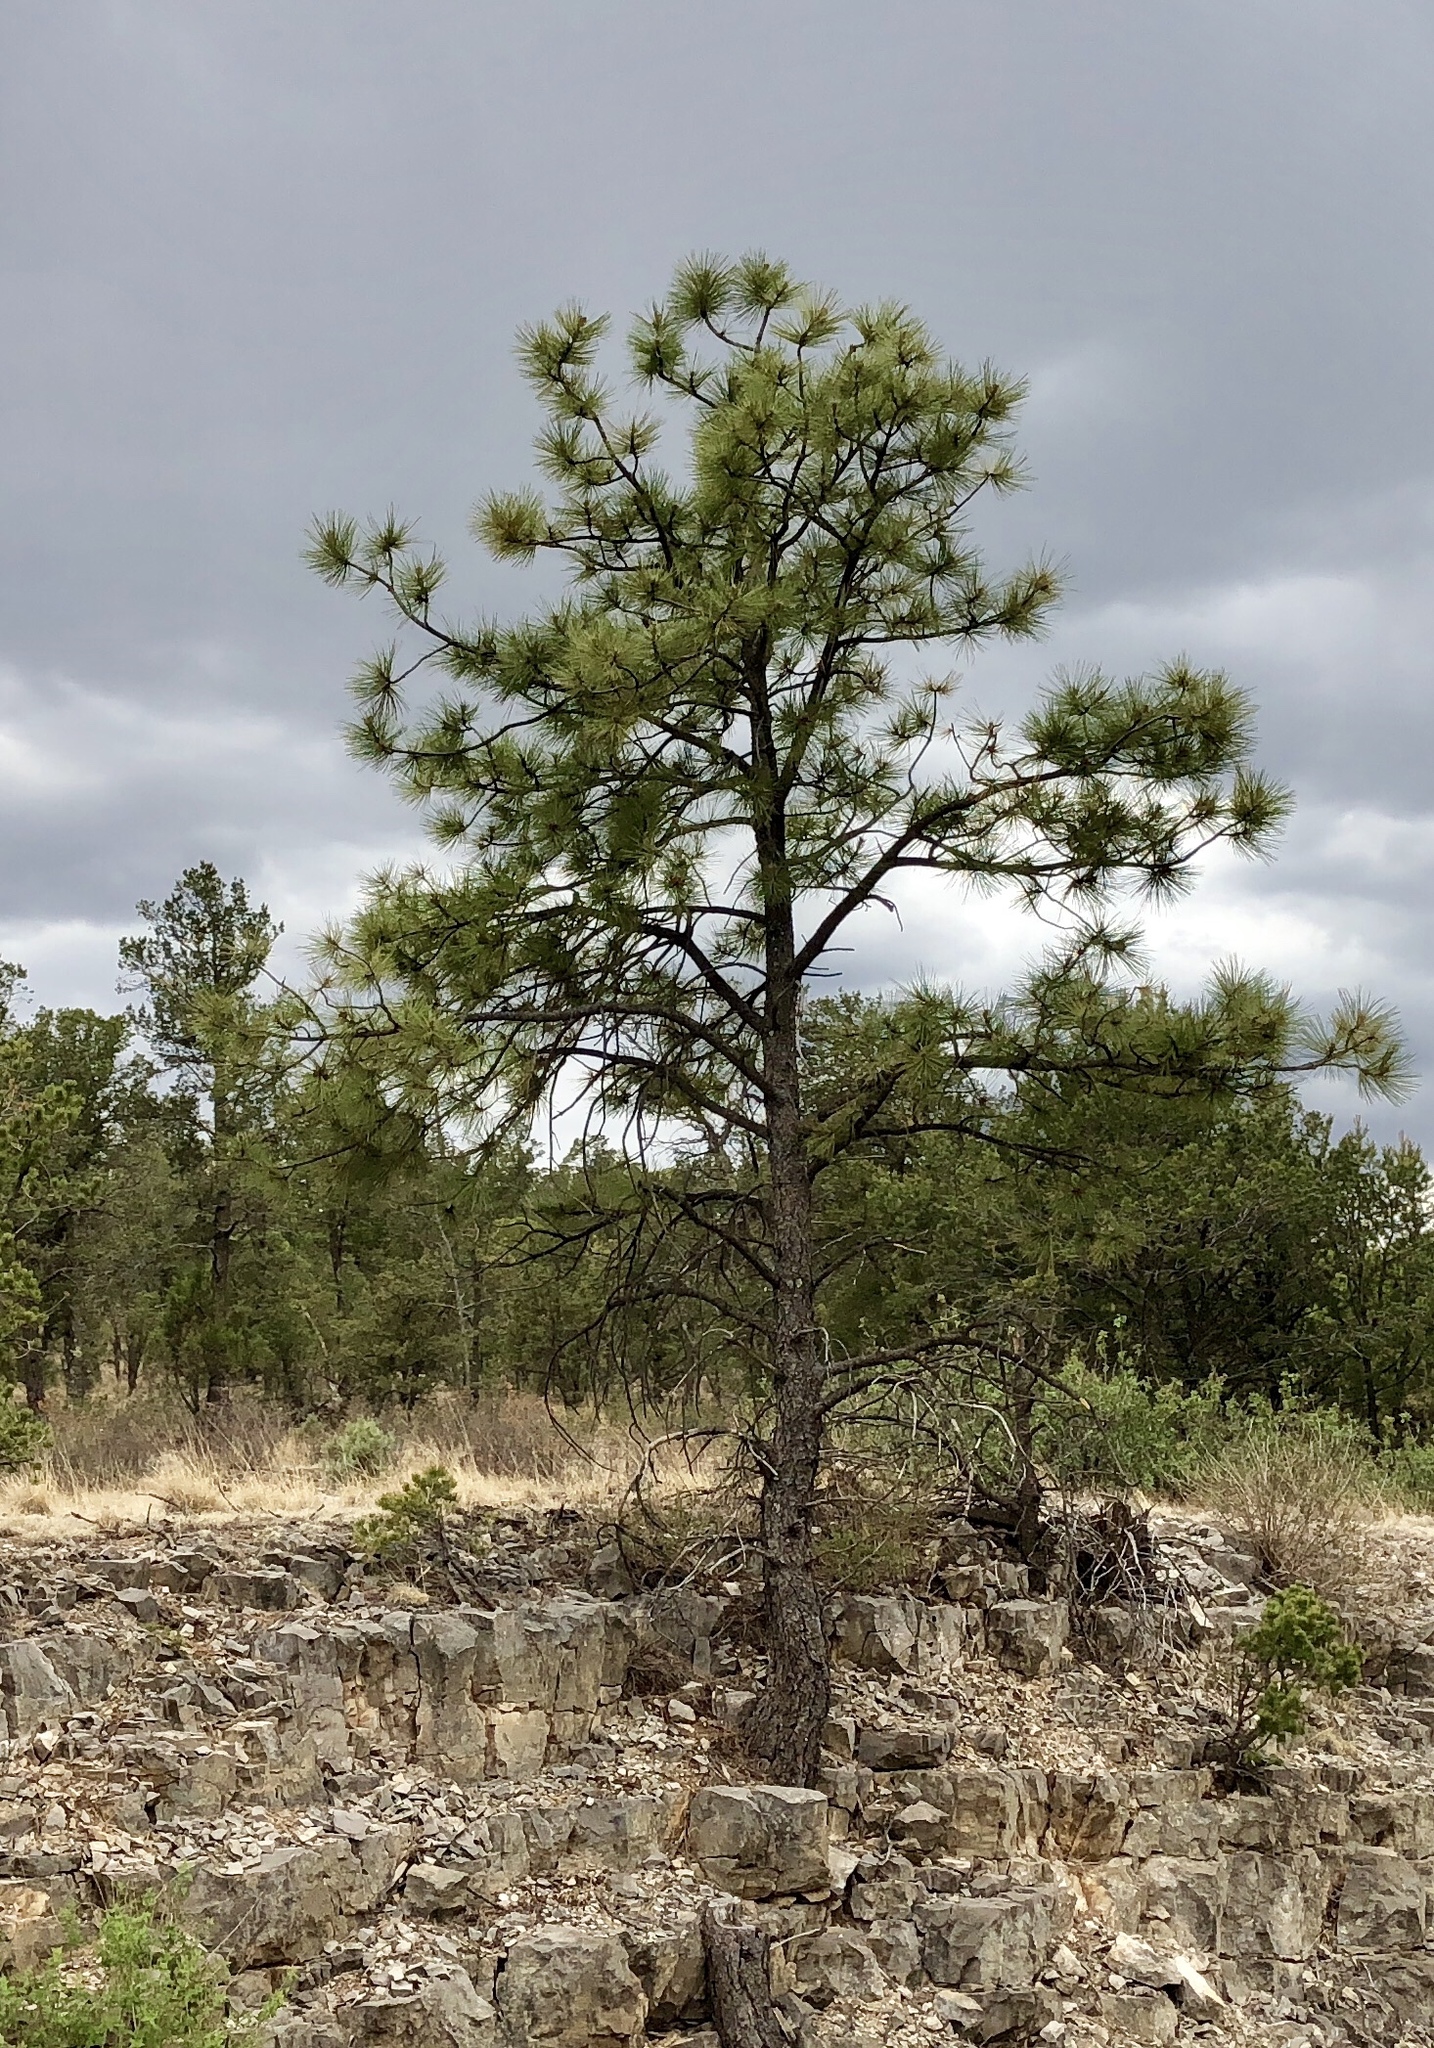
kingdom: Plantae
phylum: Tracheophyta
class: Pinopsida
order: Pinales
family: Pinaceae
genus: Pinus
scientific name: Pinus ponderosa
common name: Western yellow-pine
